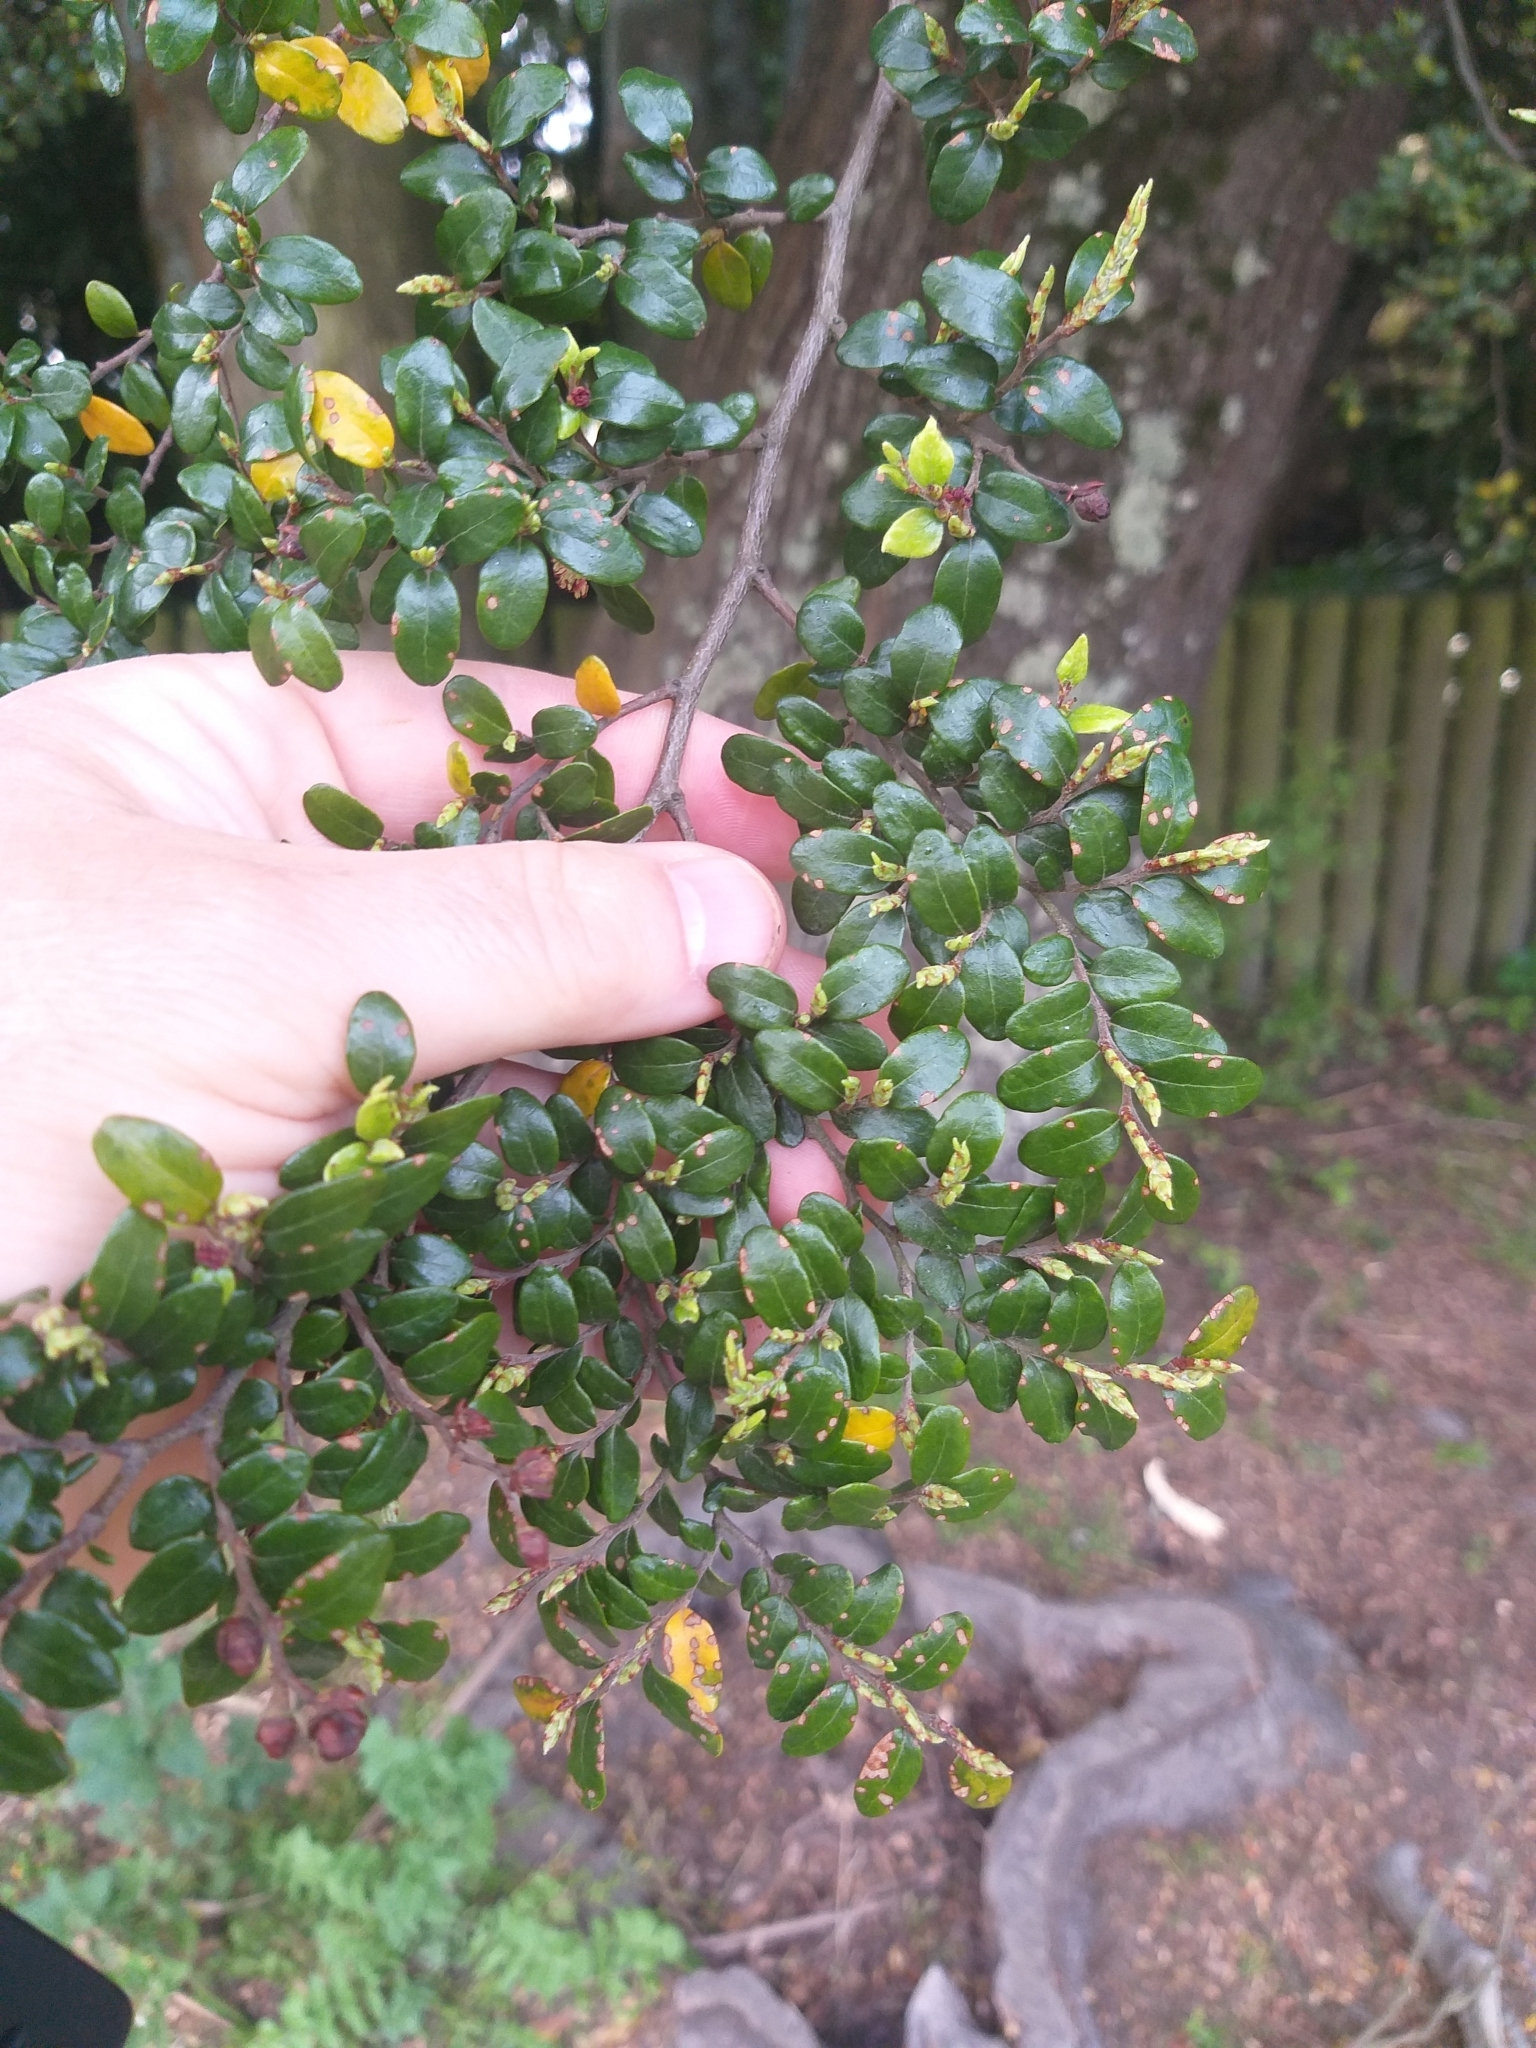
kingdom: Plantae
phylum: Tracheophyta
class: Magnoliopsida
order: Fagales
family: Nothofagaceae
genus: Nothofagus
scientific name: Nothofagus solandri
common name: Black beech
